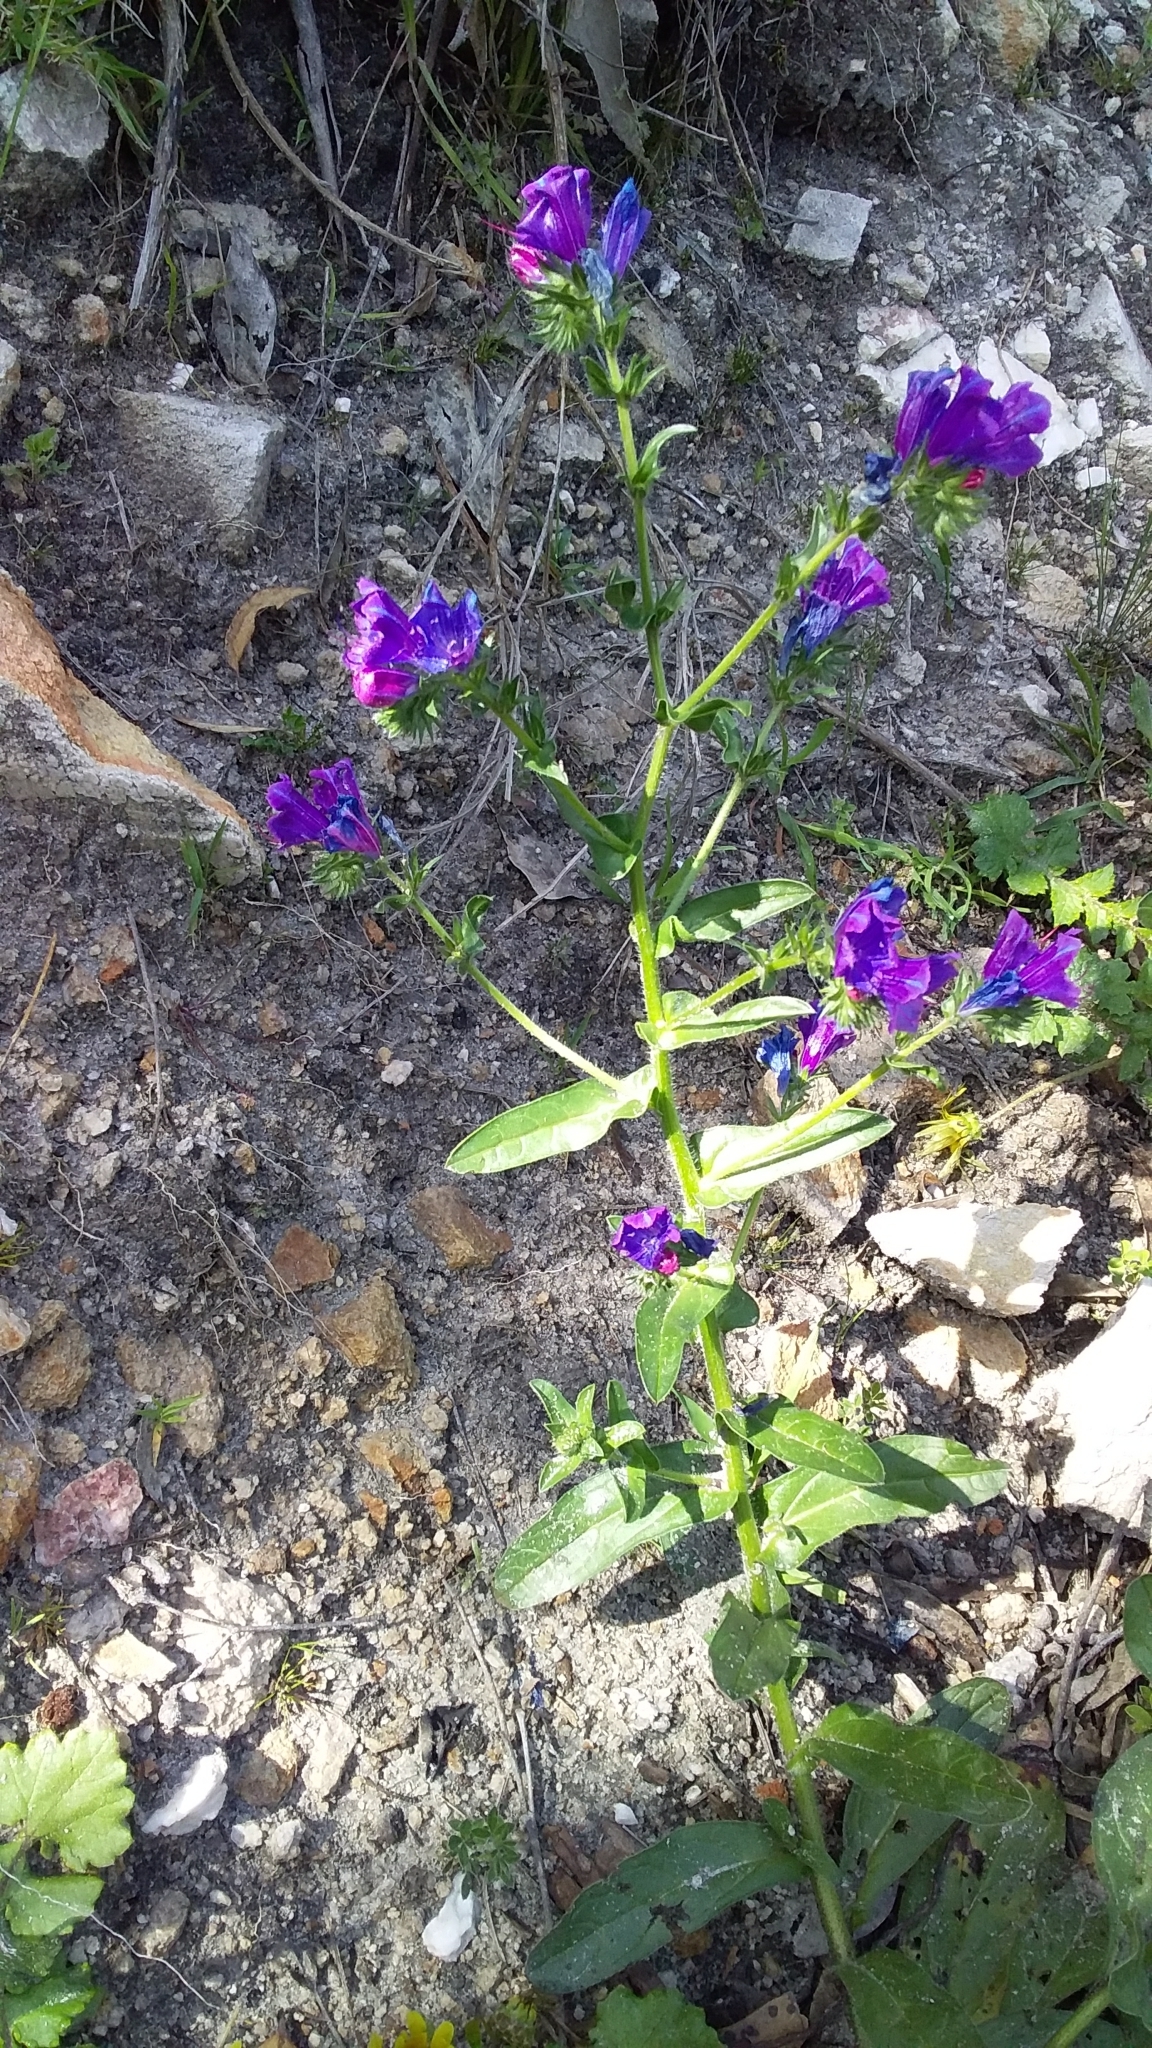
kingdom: Plantae
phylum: Tracheophyta
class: Magnoliopsida
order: Boraginales
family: Boraginaceae
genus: Echium
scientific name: Echium plantagineum
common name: Purple viper's-bugloss
